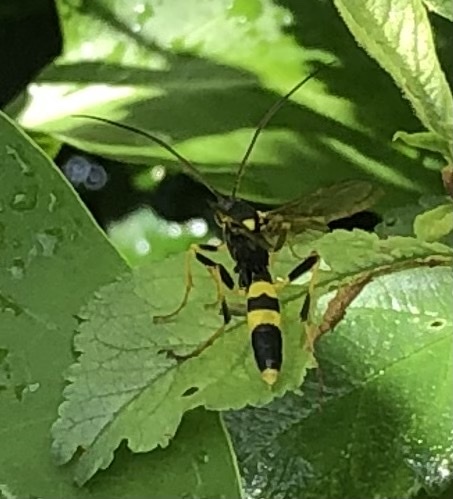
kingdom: Animalia
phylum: Arthropoda
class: Insecta
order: Hymenoptera
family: Ichneumonidae
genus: Amblyteles
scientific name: Amblyteles armatorius
